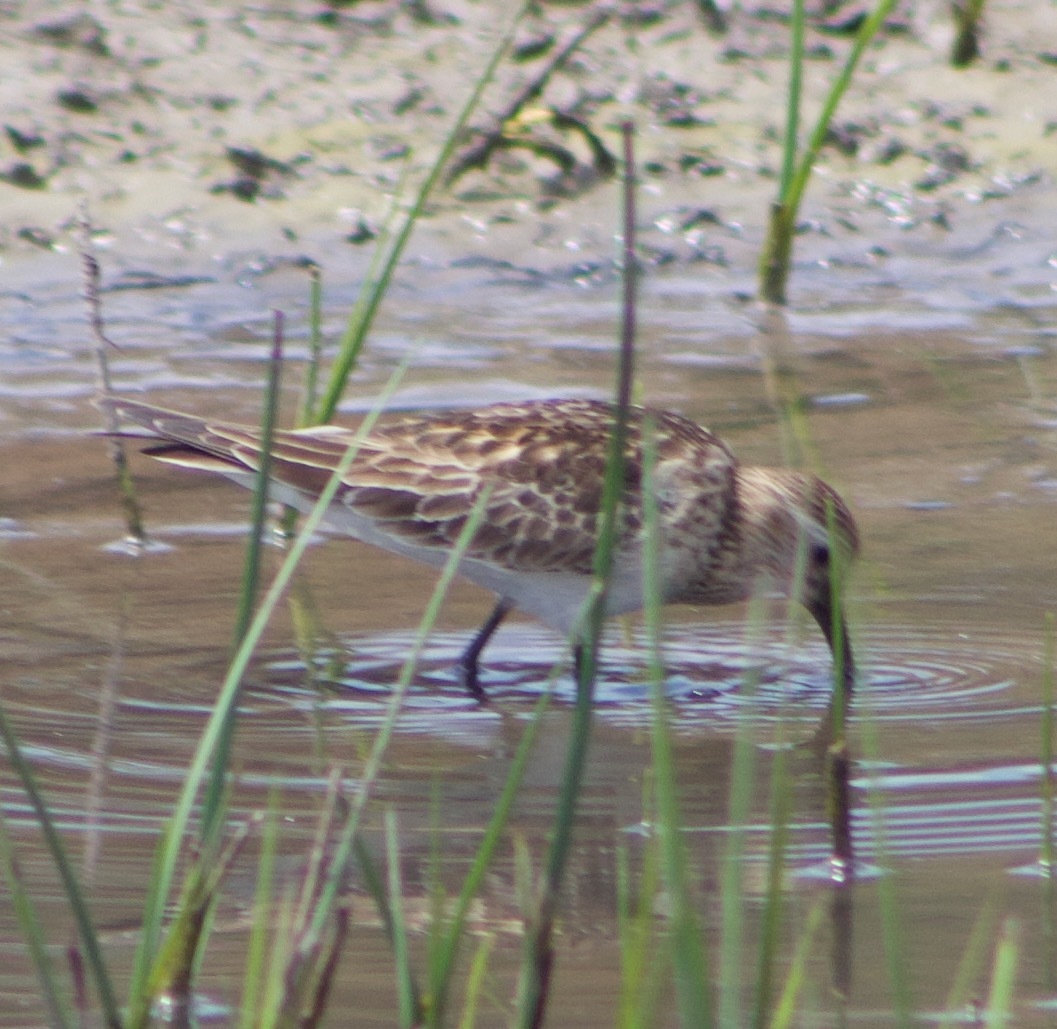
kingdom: Animalia
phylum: Chordata
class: Aves
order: Charadriiformes
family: Scolopacidae
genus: Calidris
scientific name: Calidris bairdii
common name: Baird's sandpiper
